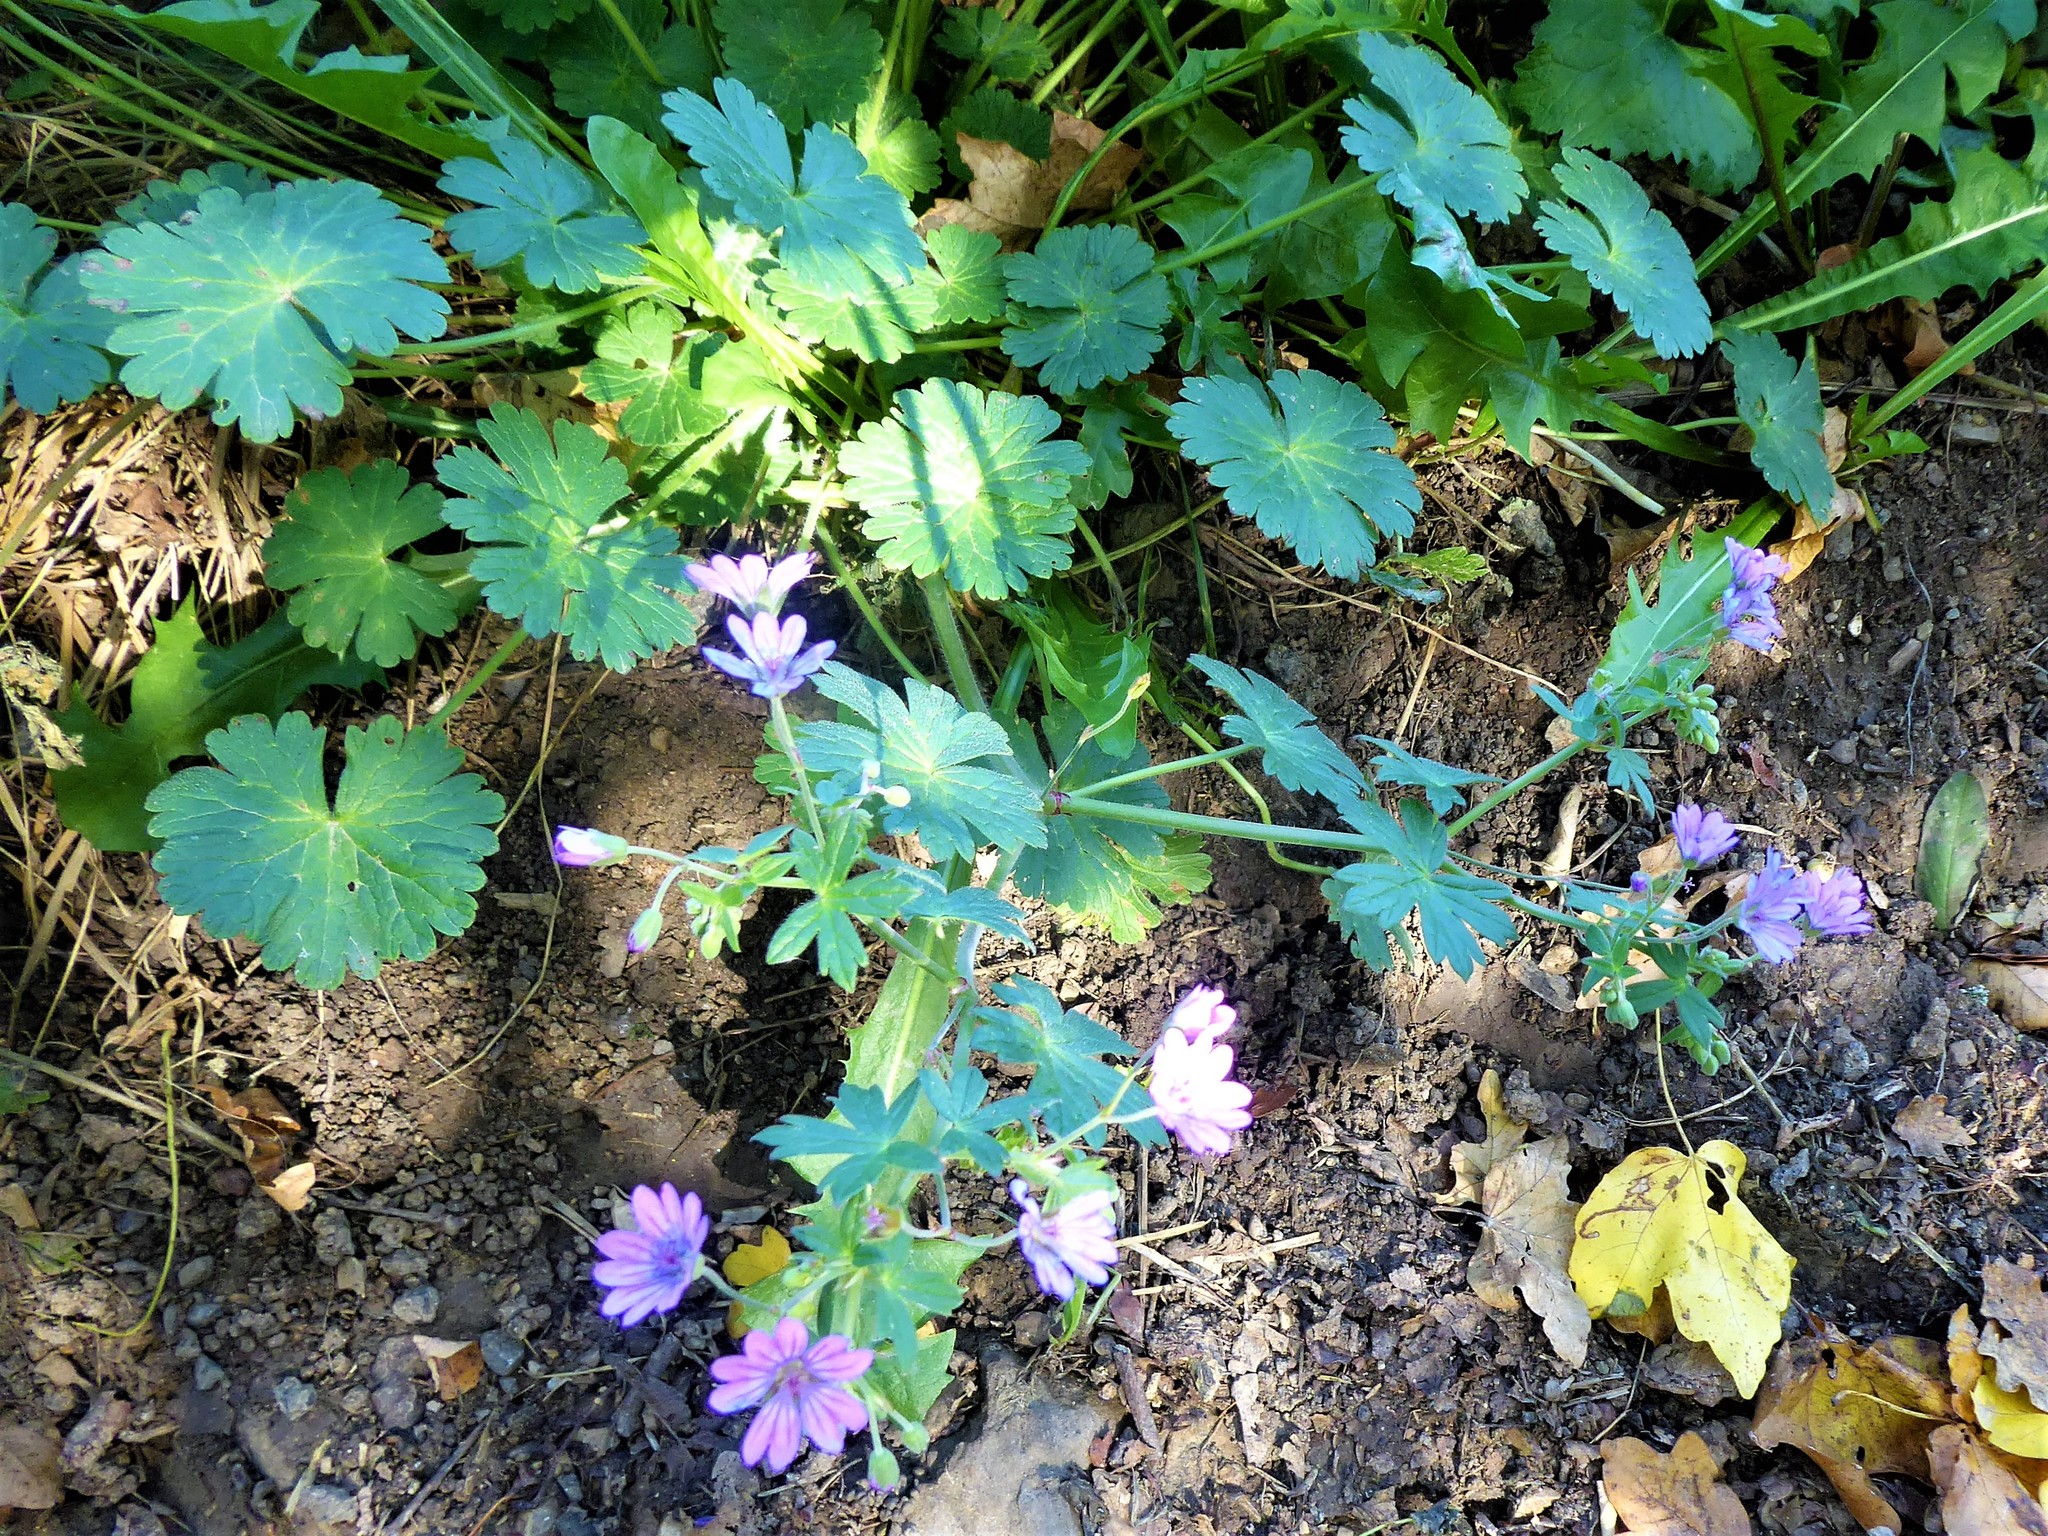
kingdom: Plantae
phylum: Tracheophyta
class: Magnoliopsida
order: Geraniales
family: Geraniaceae
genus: Geranium
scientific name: Geranium pyrenaicum
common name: Hedgerow crane's-bill
